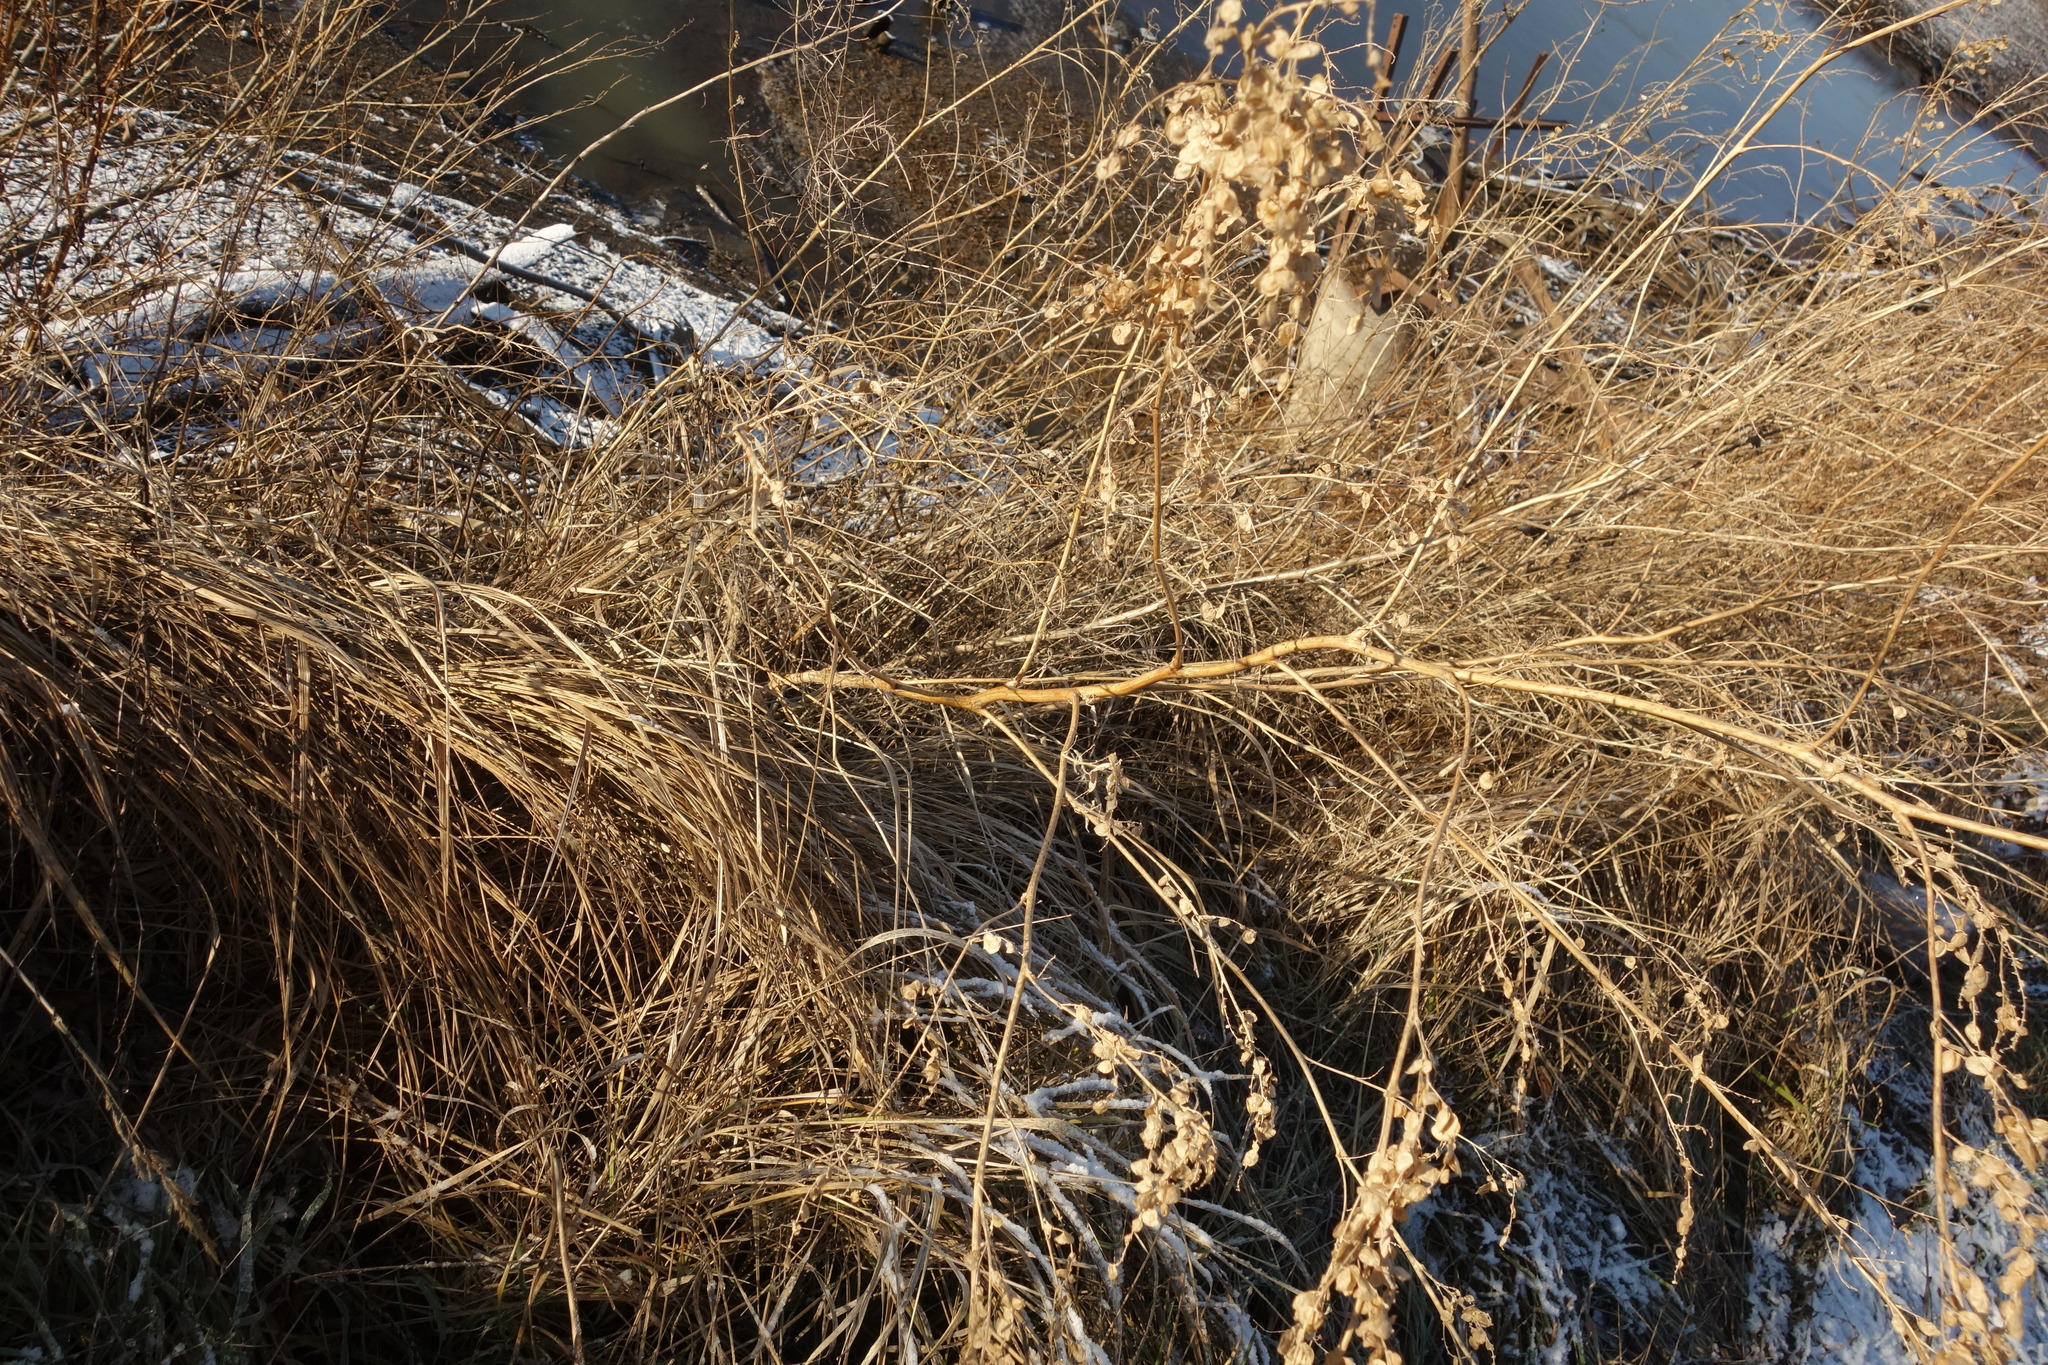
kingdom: Plantae
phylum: Tracheophyta
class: Magnoliopsida
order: Caryophyllales
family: Amaranthaceae
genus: Atriplex
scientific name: Atriplex sagittata
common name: Purple orache
